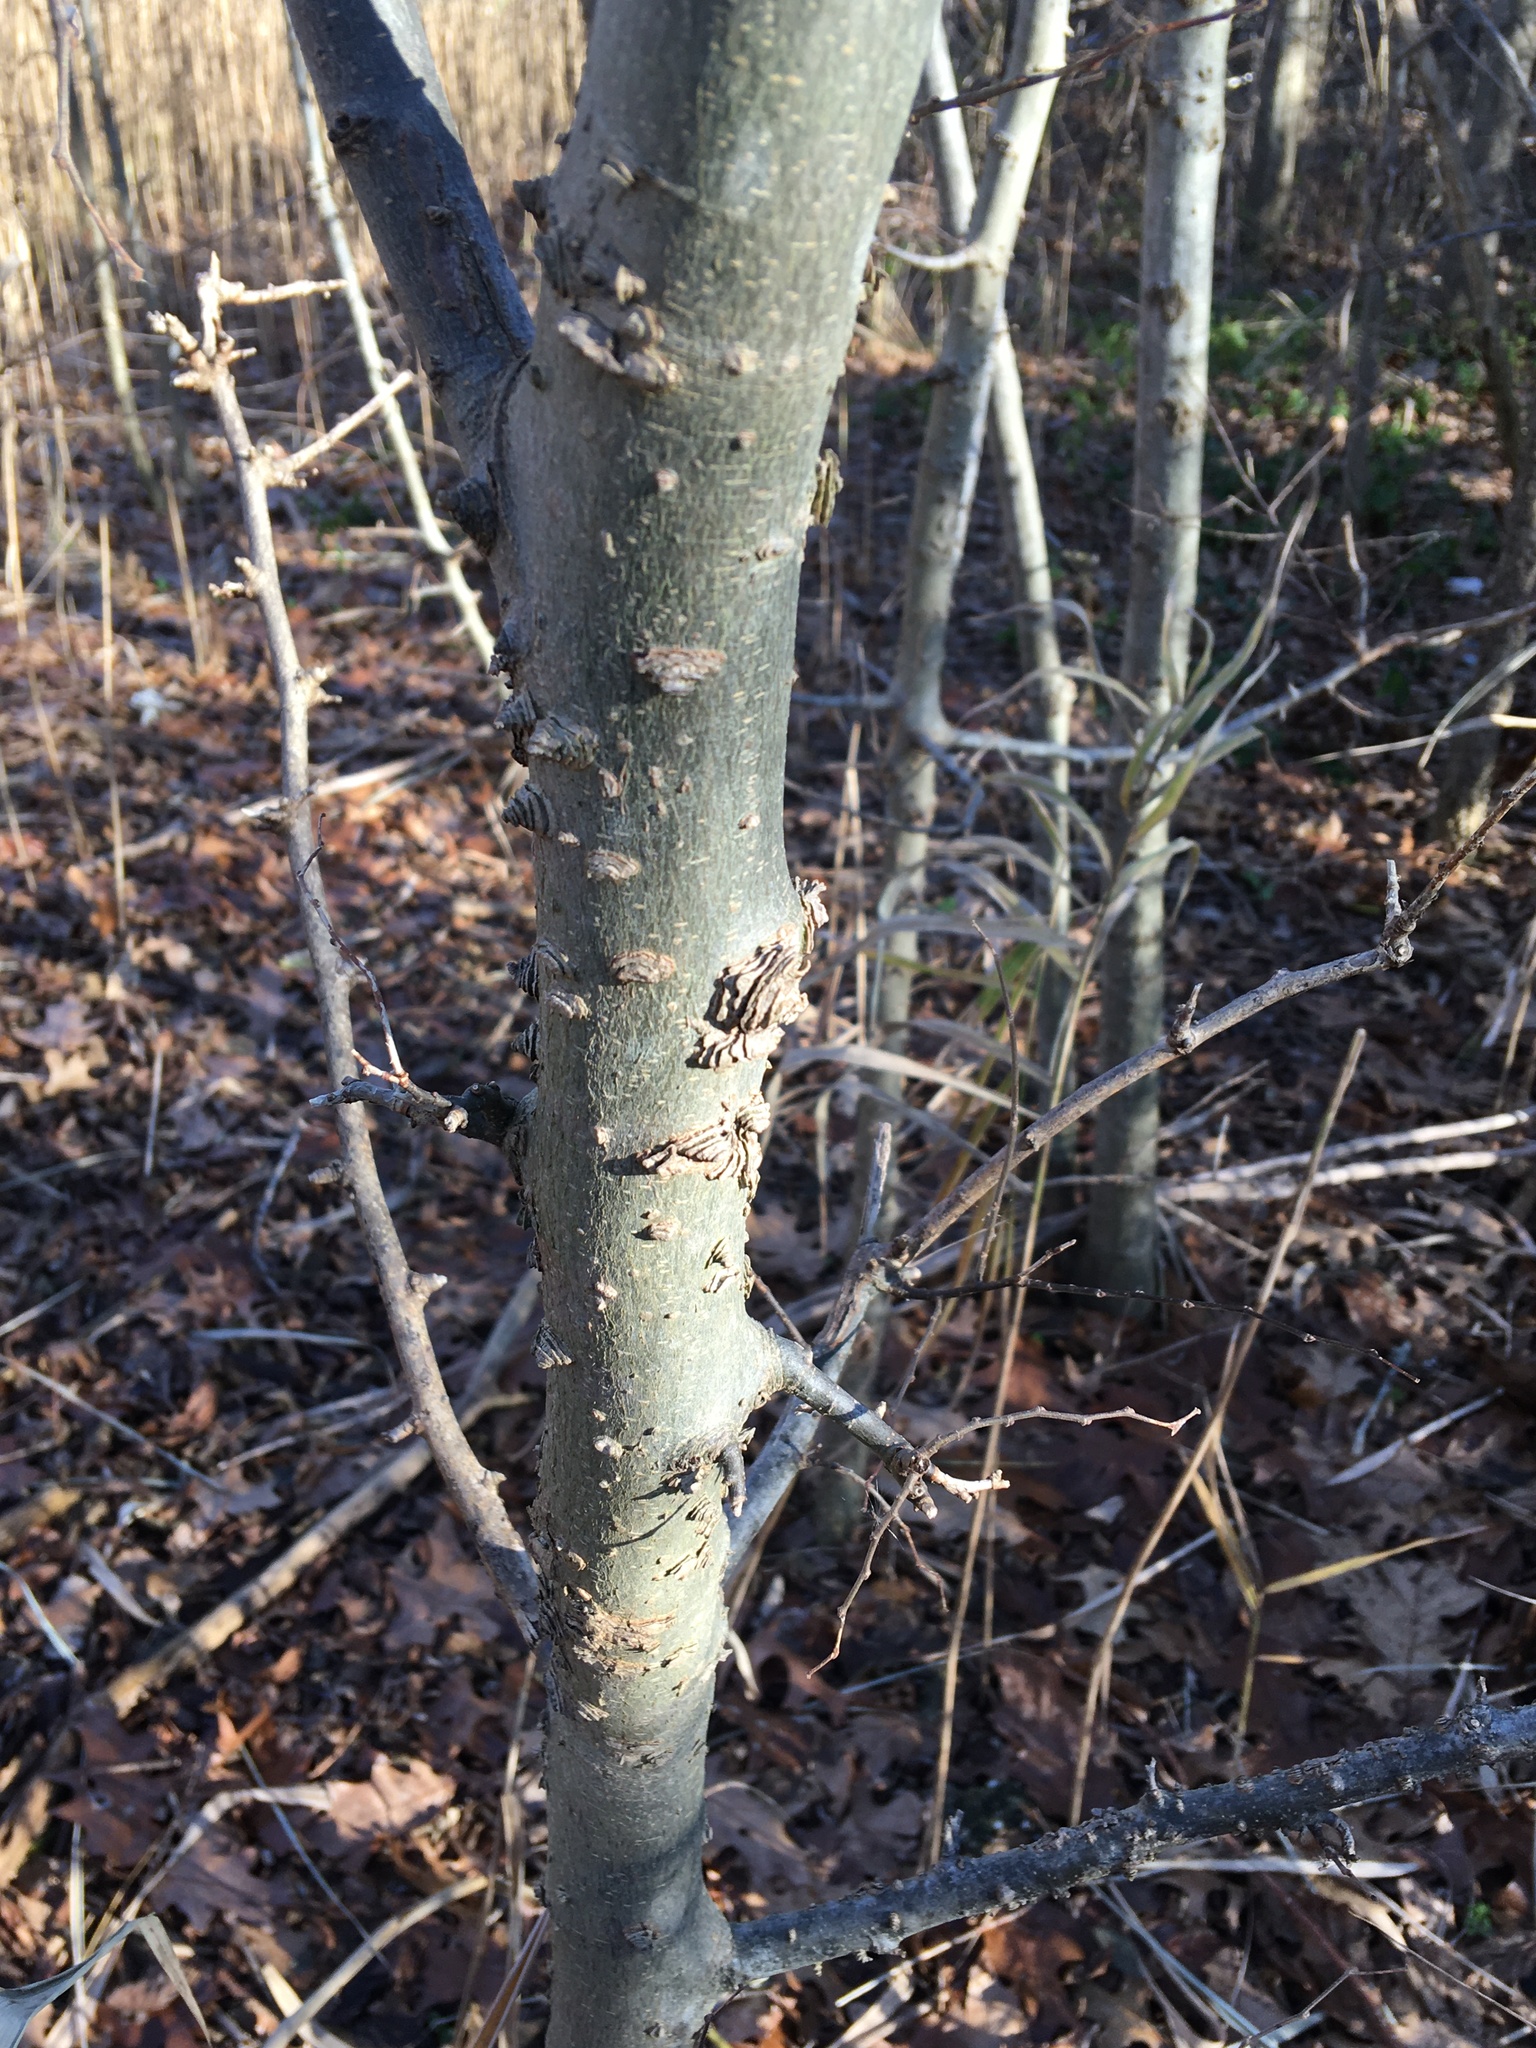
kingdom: Plantae
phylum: Tracheophyta
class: Magnoliopsida
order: Rosales
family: Cannabaceae
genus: Celtis
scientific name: Celtis occidentalis
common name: Common hackberry
